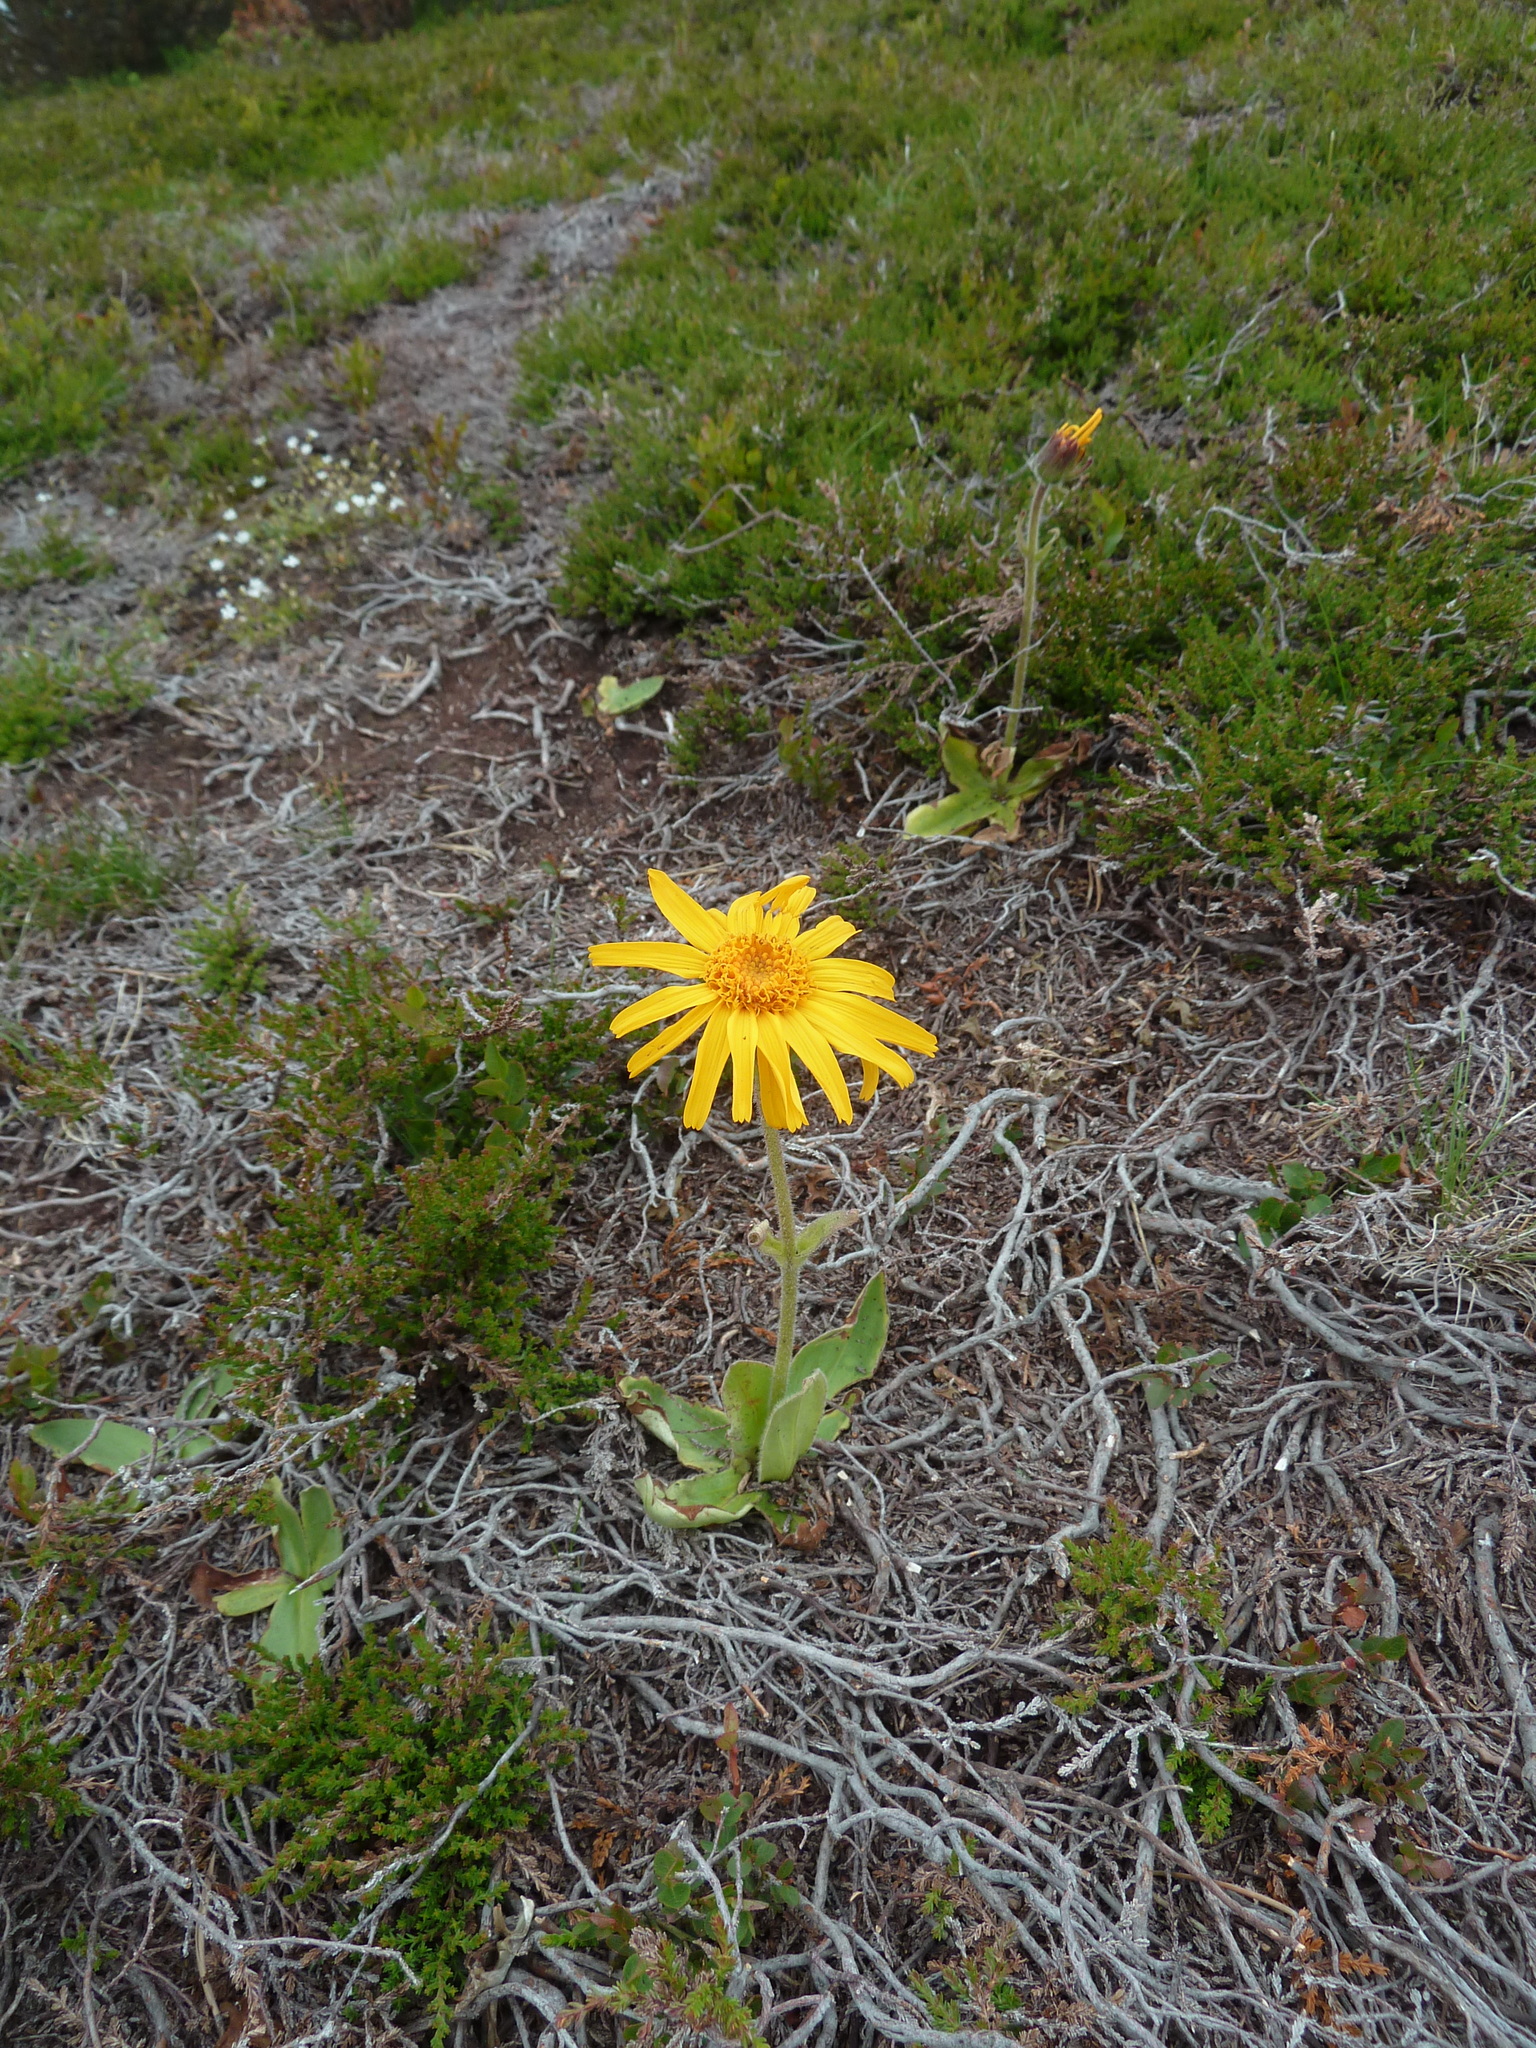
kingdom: Plantae
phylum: Tracheophyta
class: Magnoliopsida
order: Asterales
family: Asteraceae
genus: Arnica
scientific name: Arnica montana
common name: Leopard's bane
